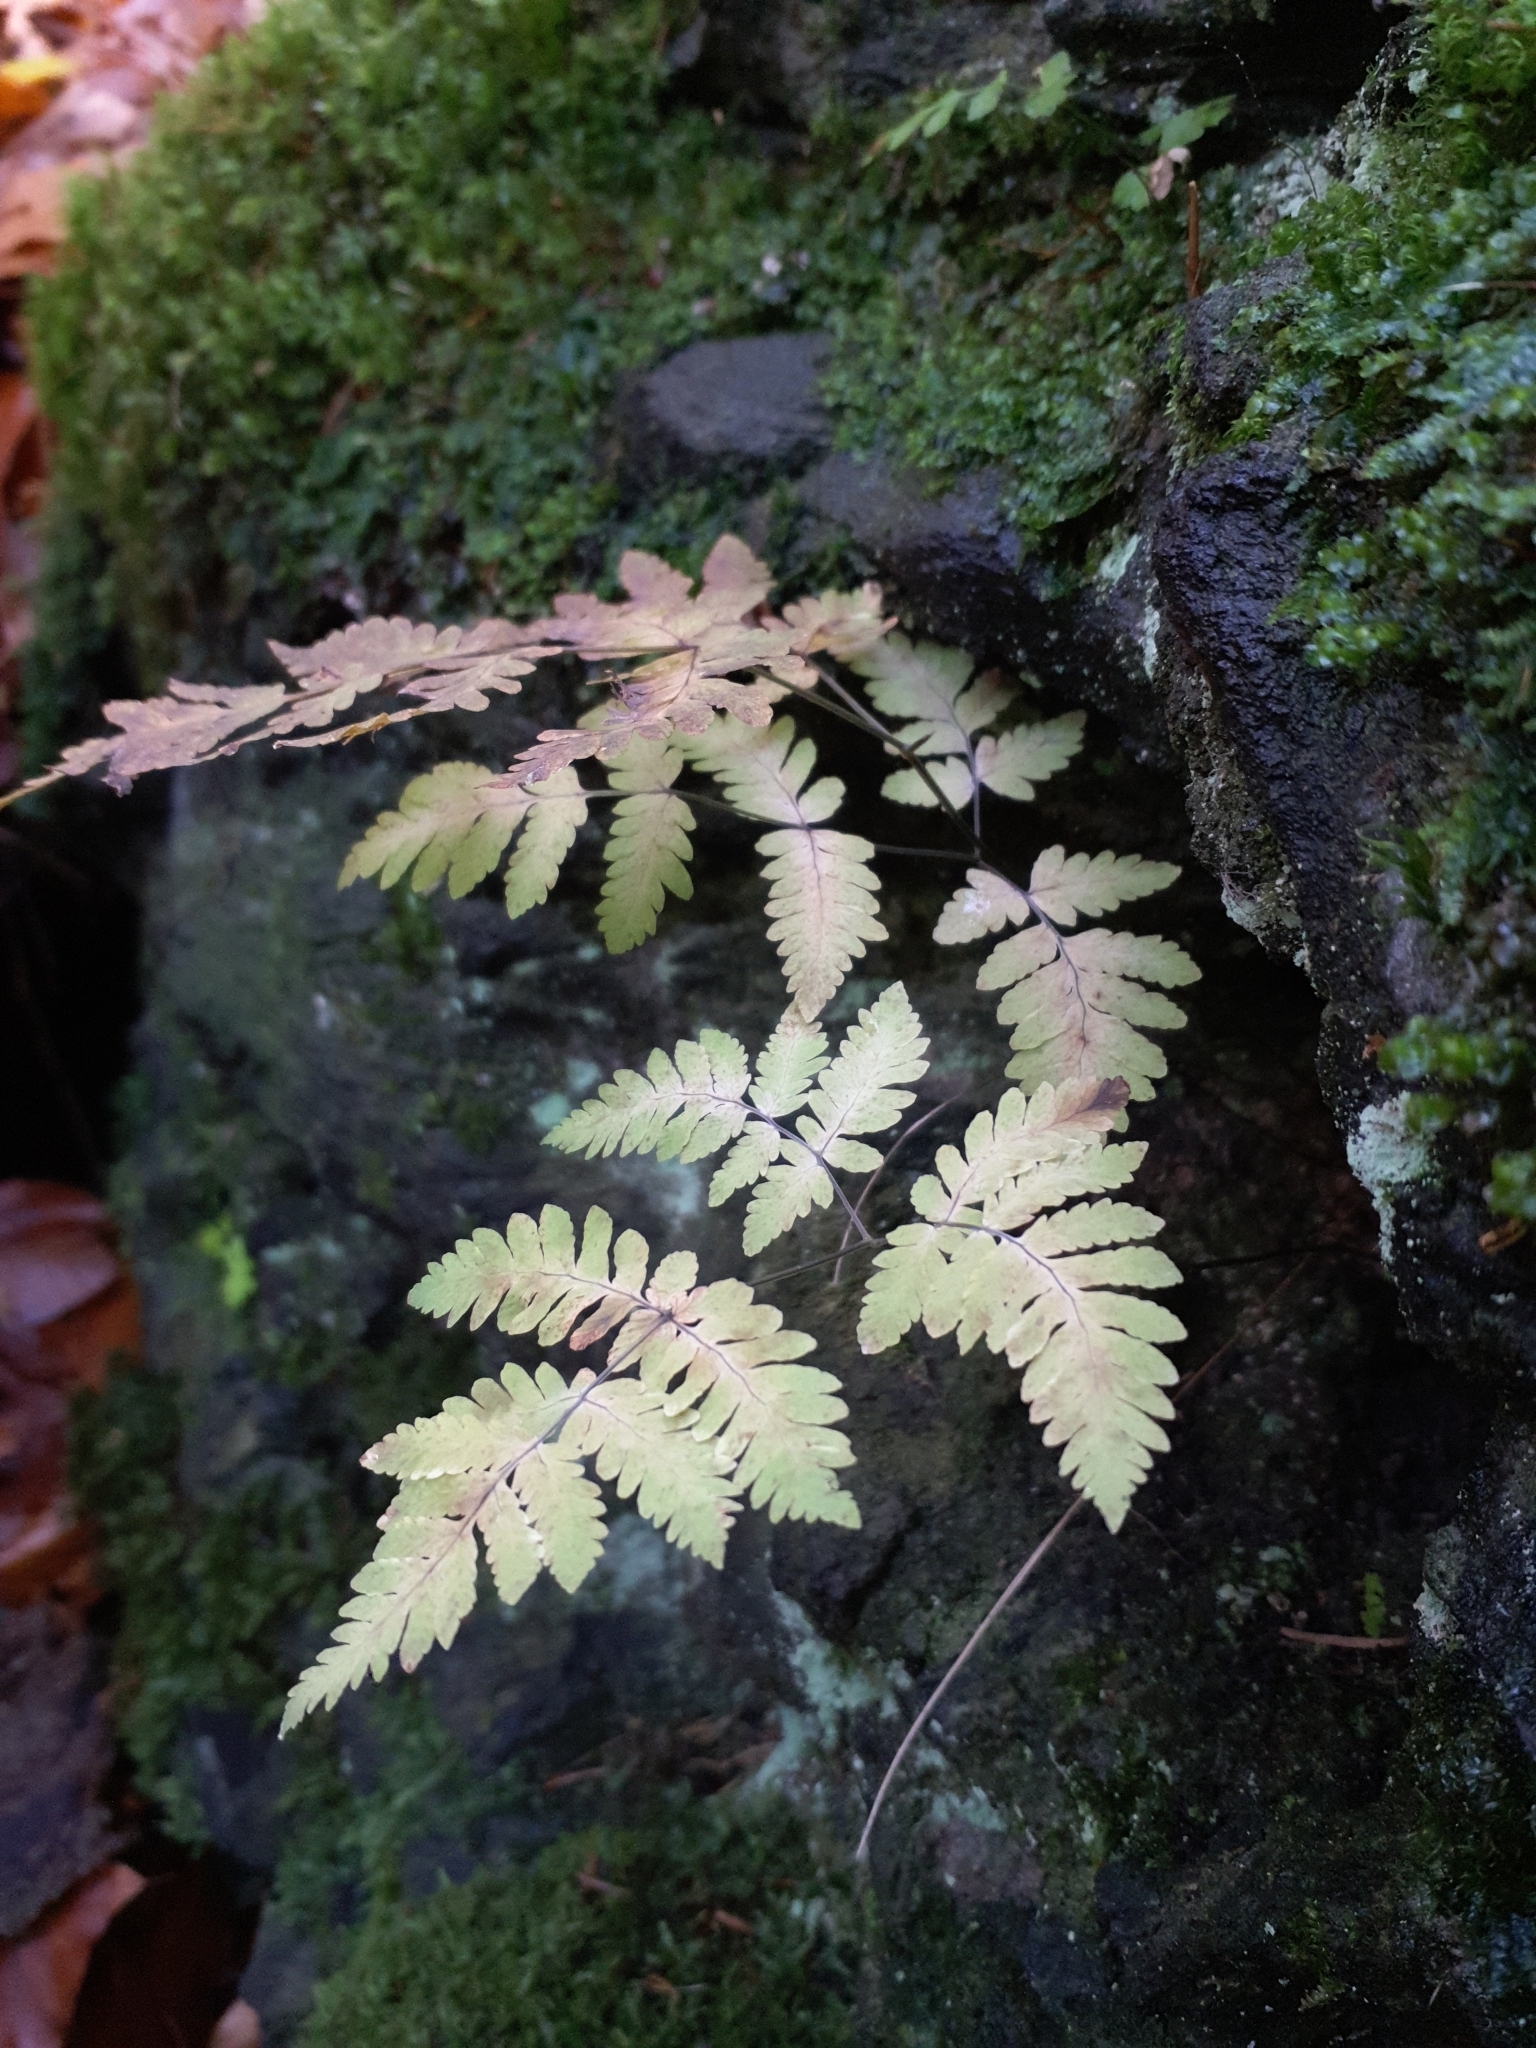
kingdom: Plantae
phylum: Tracheophyta
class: Polypodiopsida
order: Polypodiales
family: Cystopteridaceae
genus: Gymnocarpium
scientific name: Gymnocarpium dryopteris
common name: Oak fern
